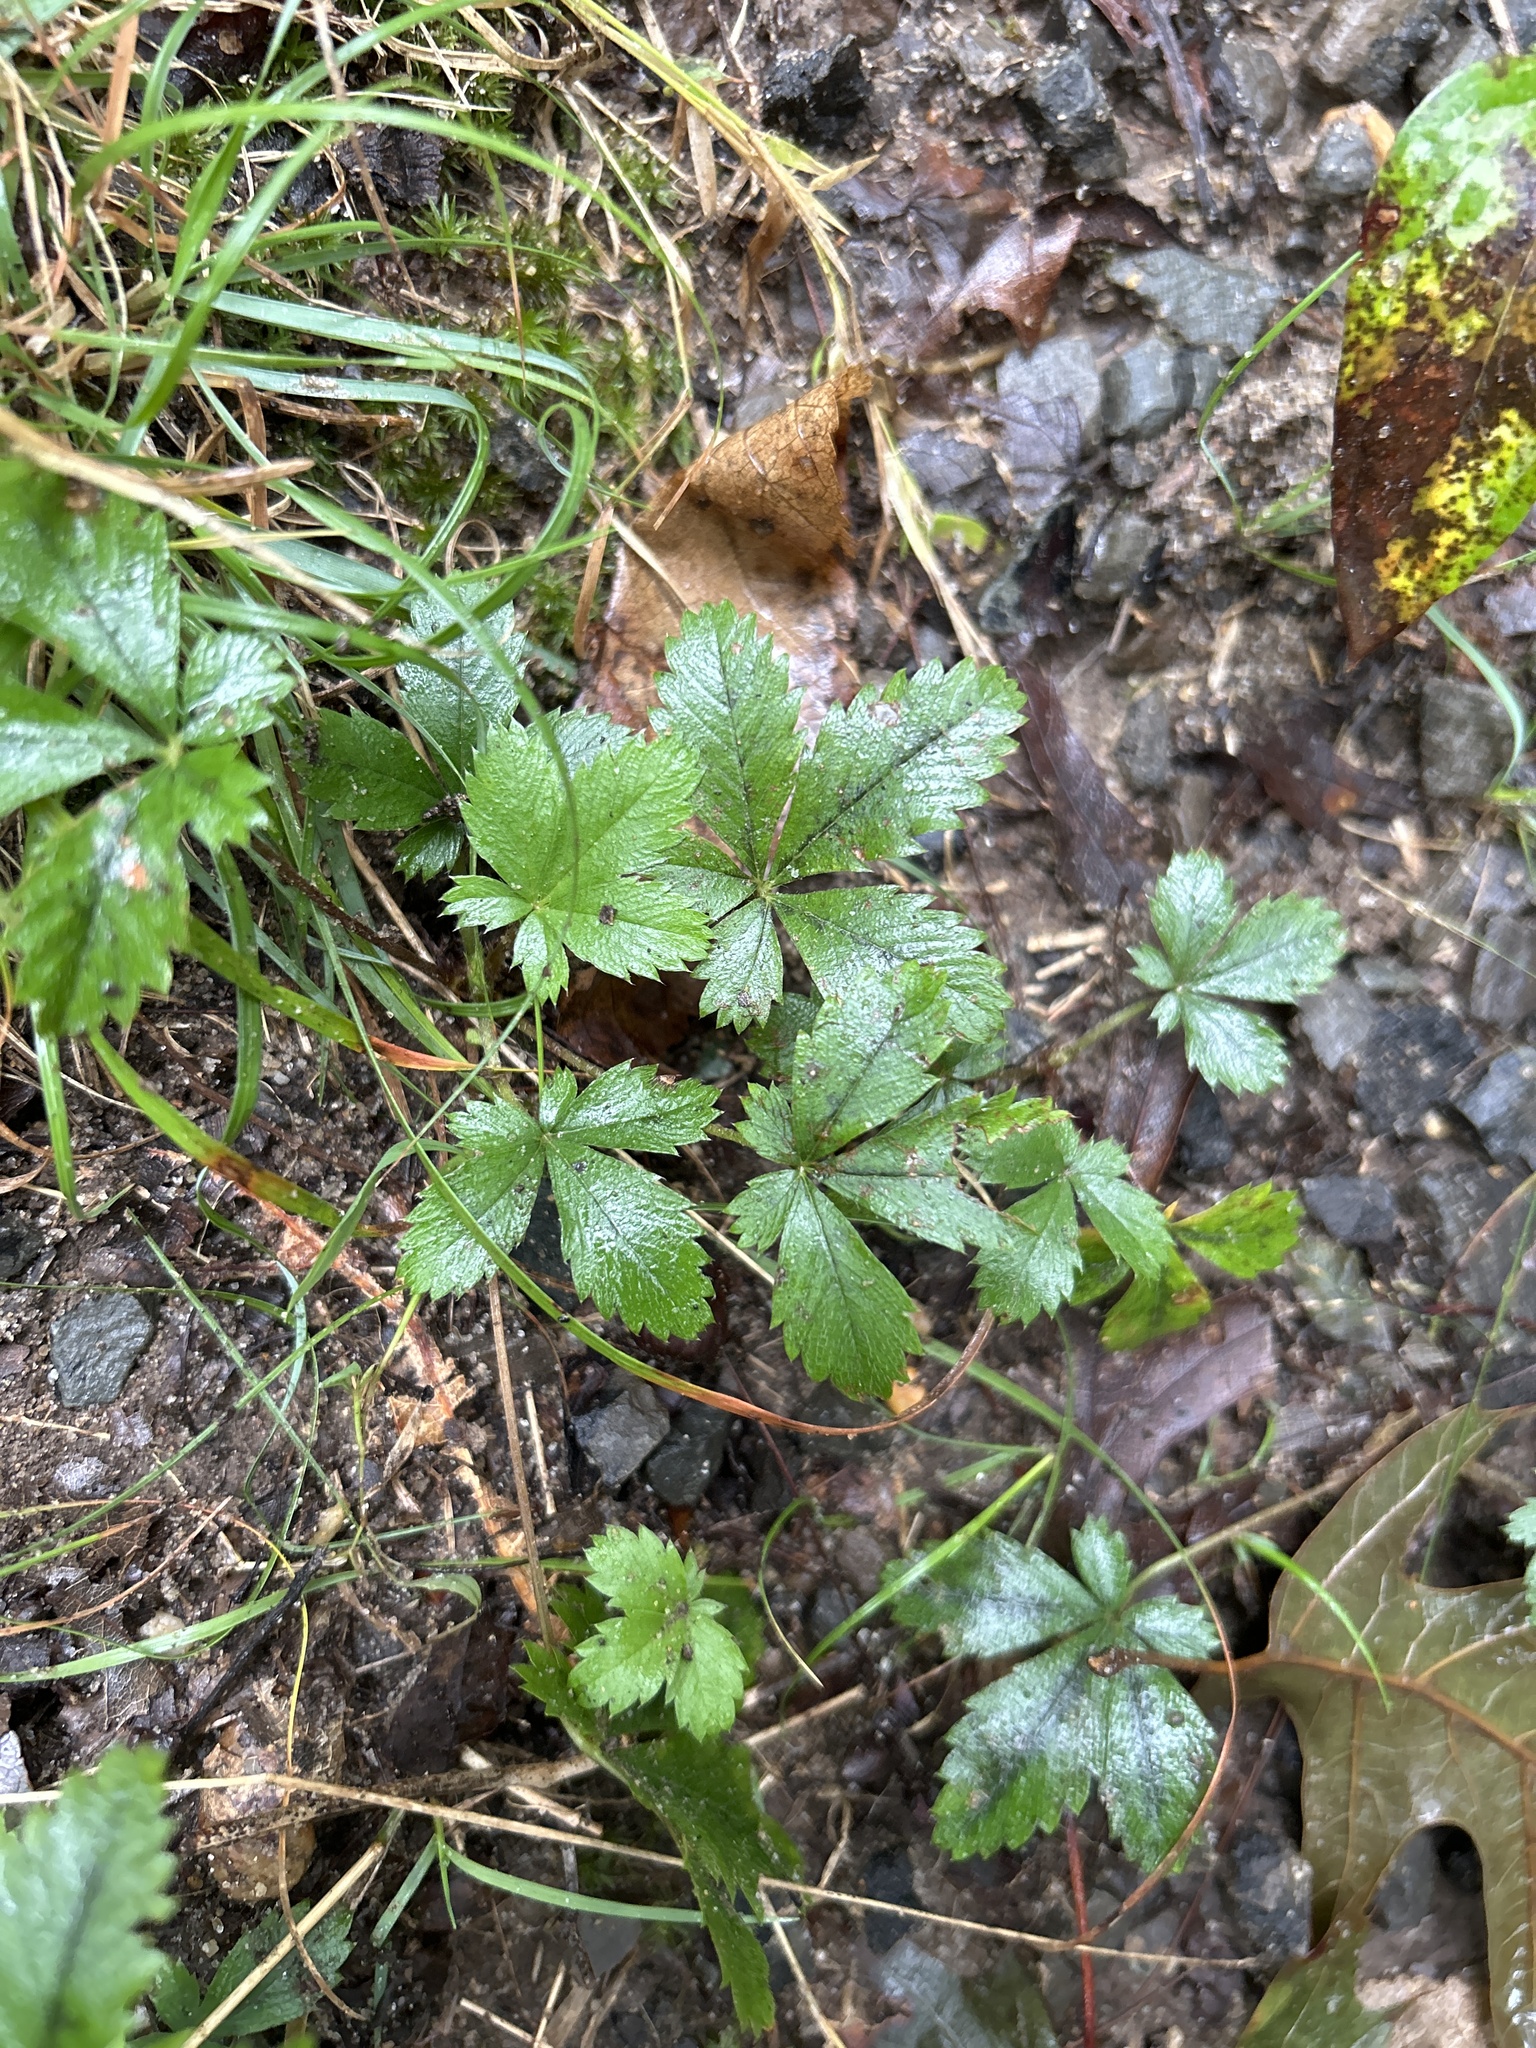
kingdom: Plantae
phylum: Tracheophyta
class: Magnoliopsida
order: Rosales
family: Rosaceae
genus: Potentilla
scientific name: Potentilla canadensis
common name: Canada cinquefoil
